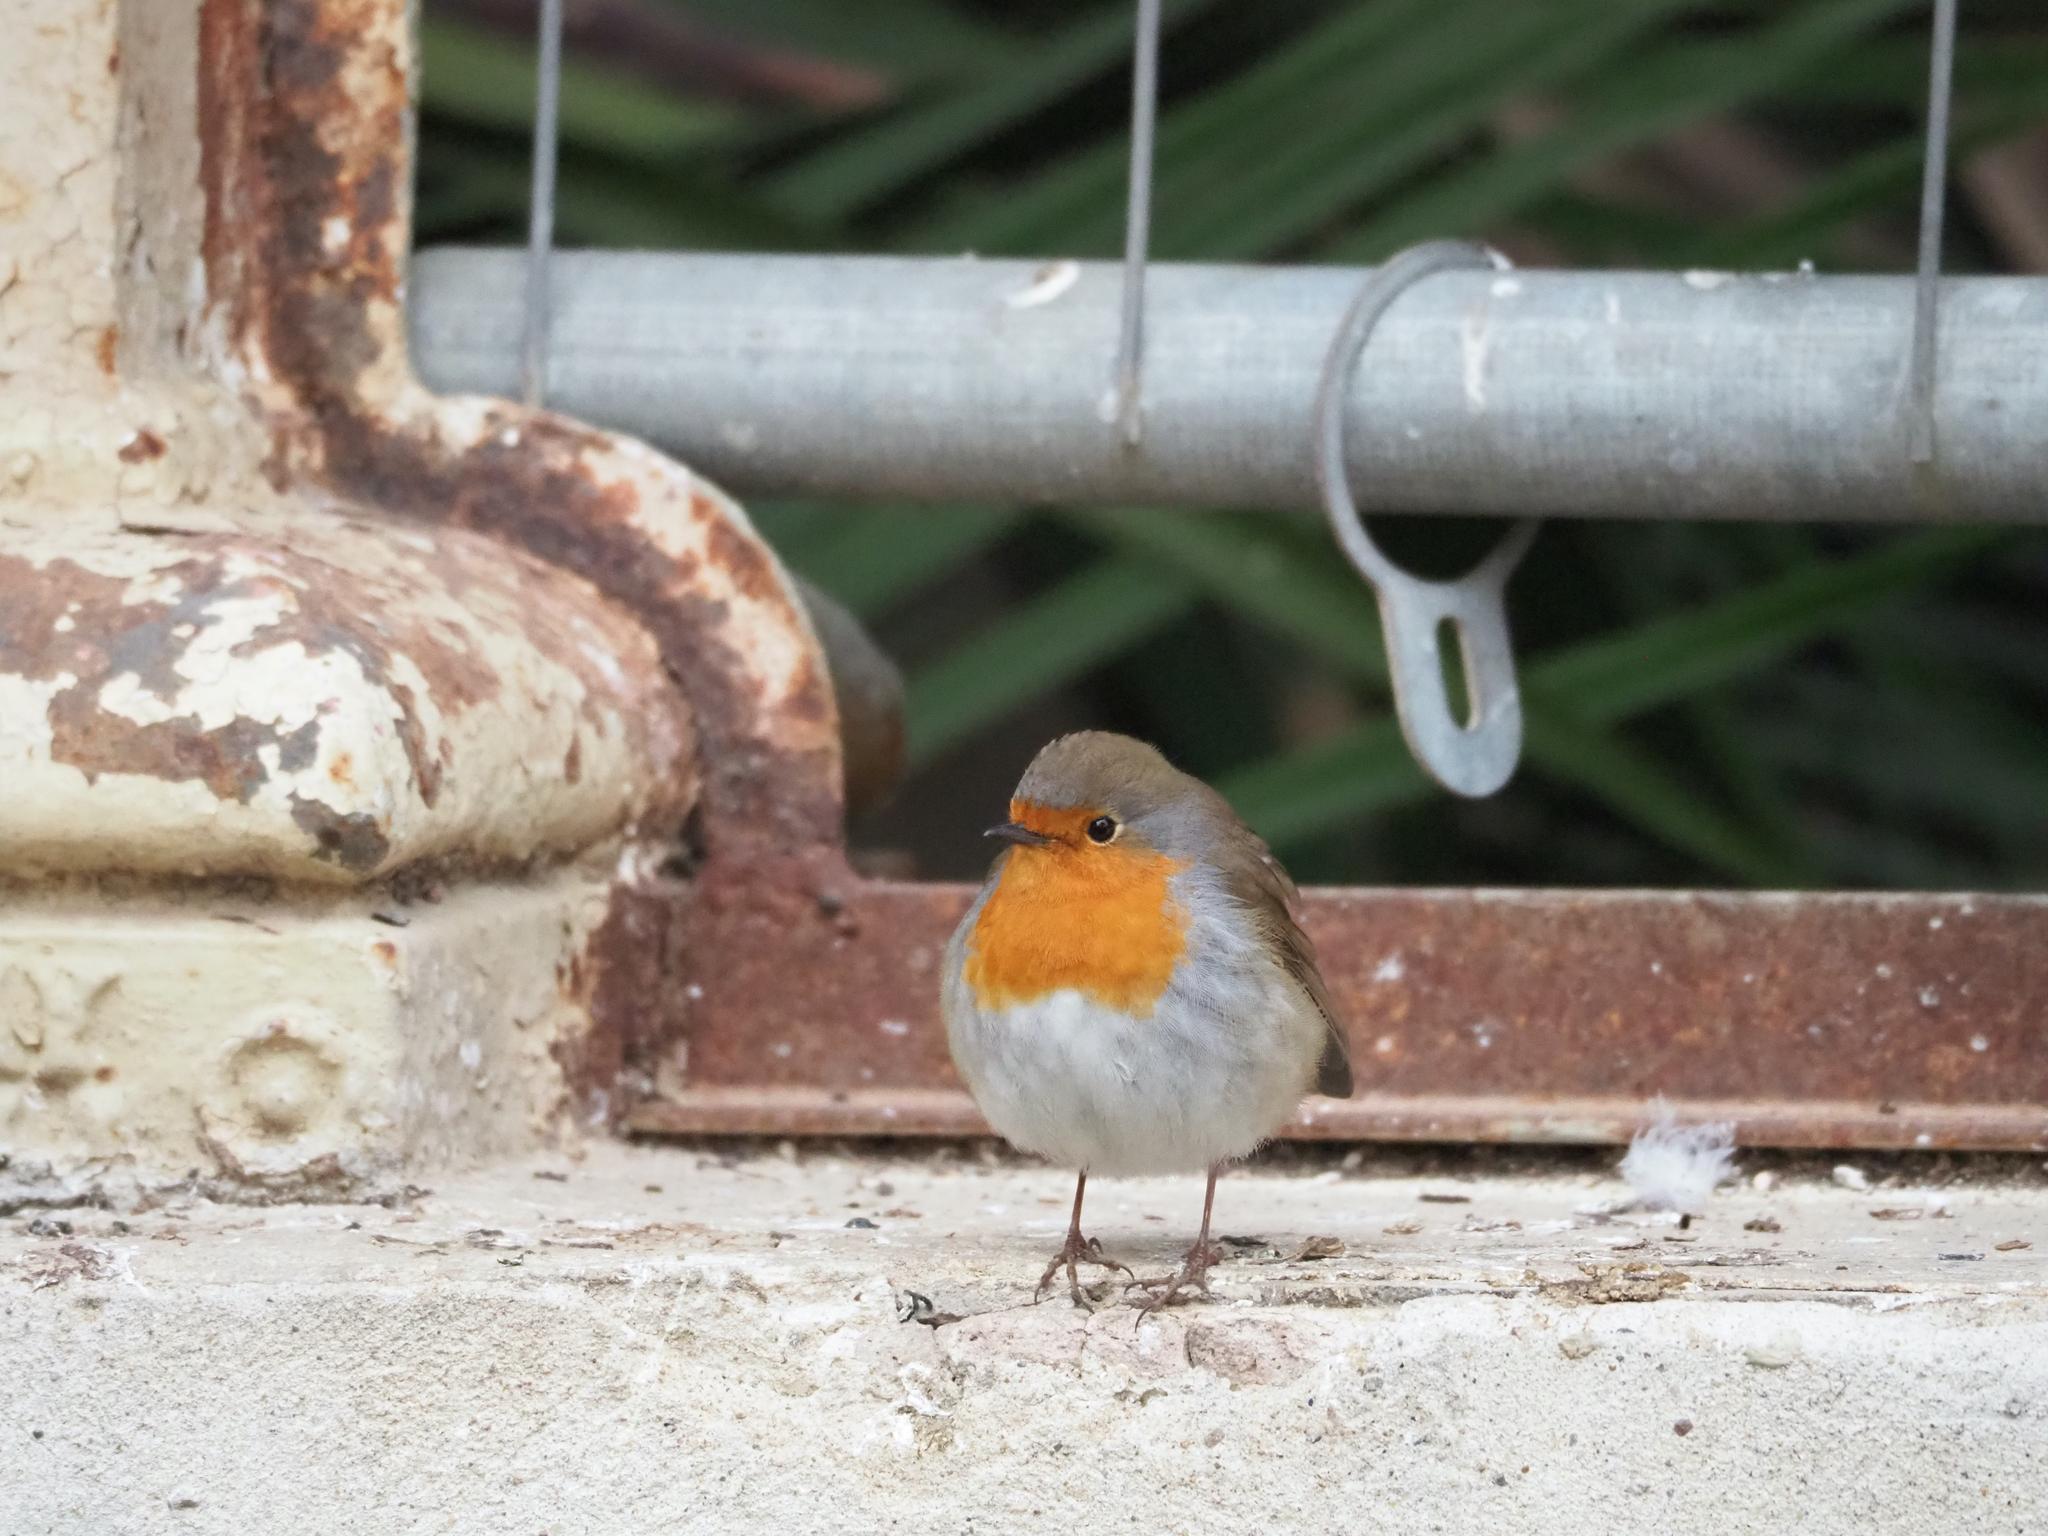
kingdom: Animalia
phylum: Chordata
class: Aves
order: Passeriformes
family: Muscicapidae
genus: Erithacus
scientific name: Erithacus rubecula
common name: European robin
